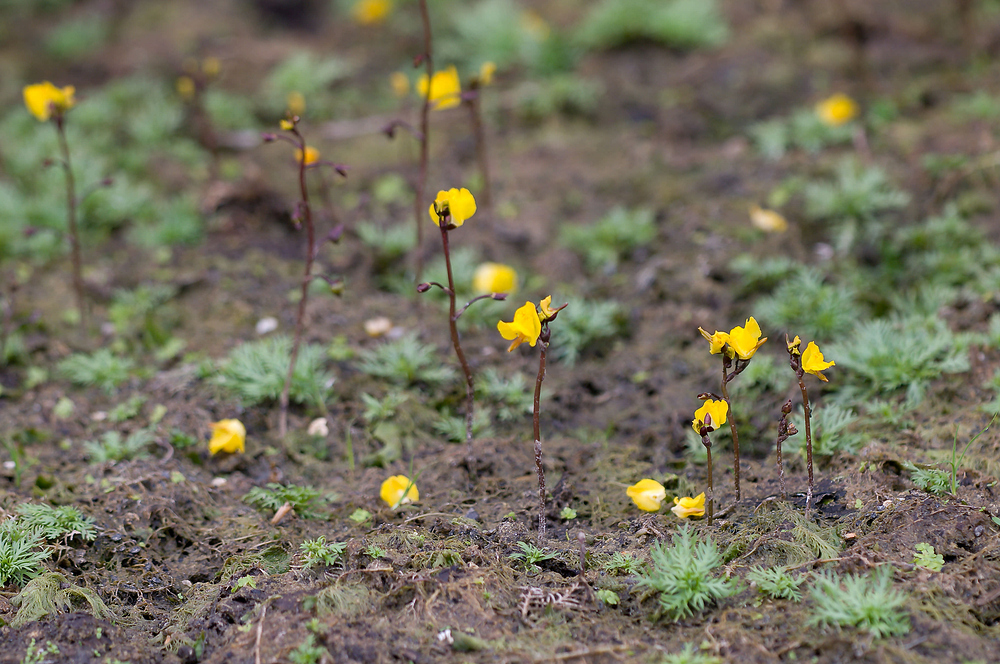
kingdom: Plantae
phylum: Tracheophyta
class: Magnoliopsida
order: Lamiales
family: Lentibulariaceae
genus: Utricularia
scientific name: Utricularia vulgaris
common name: Greater bladderwort
